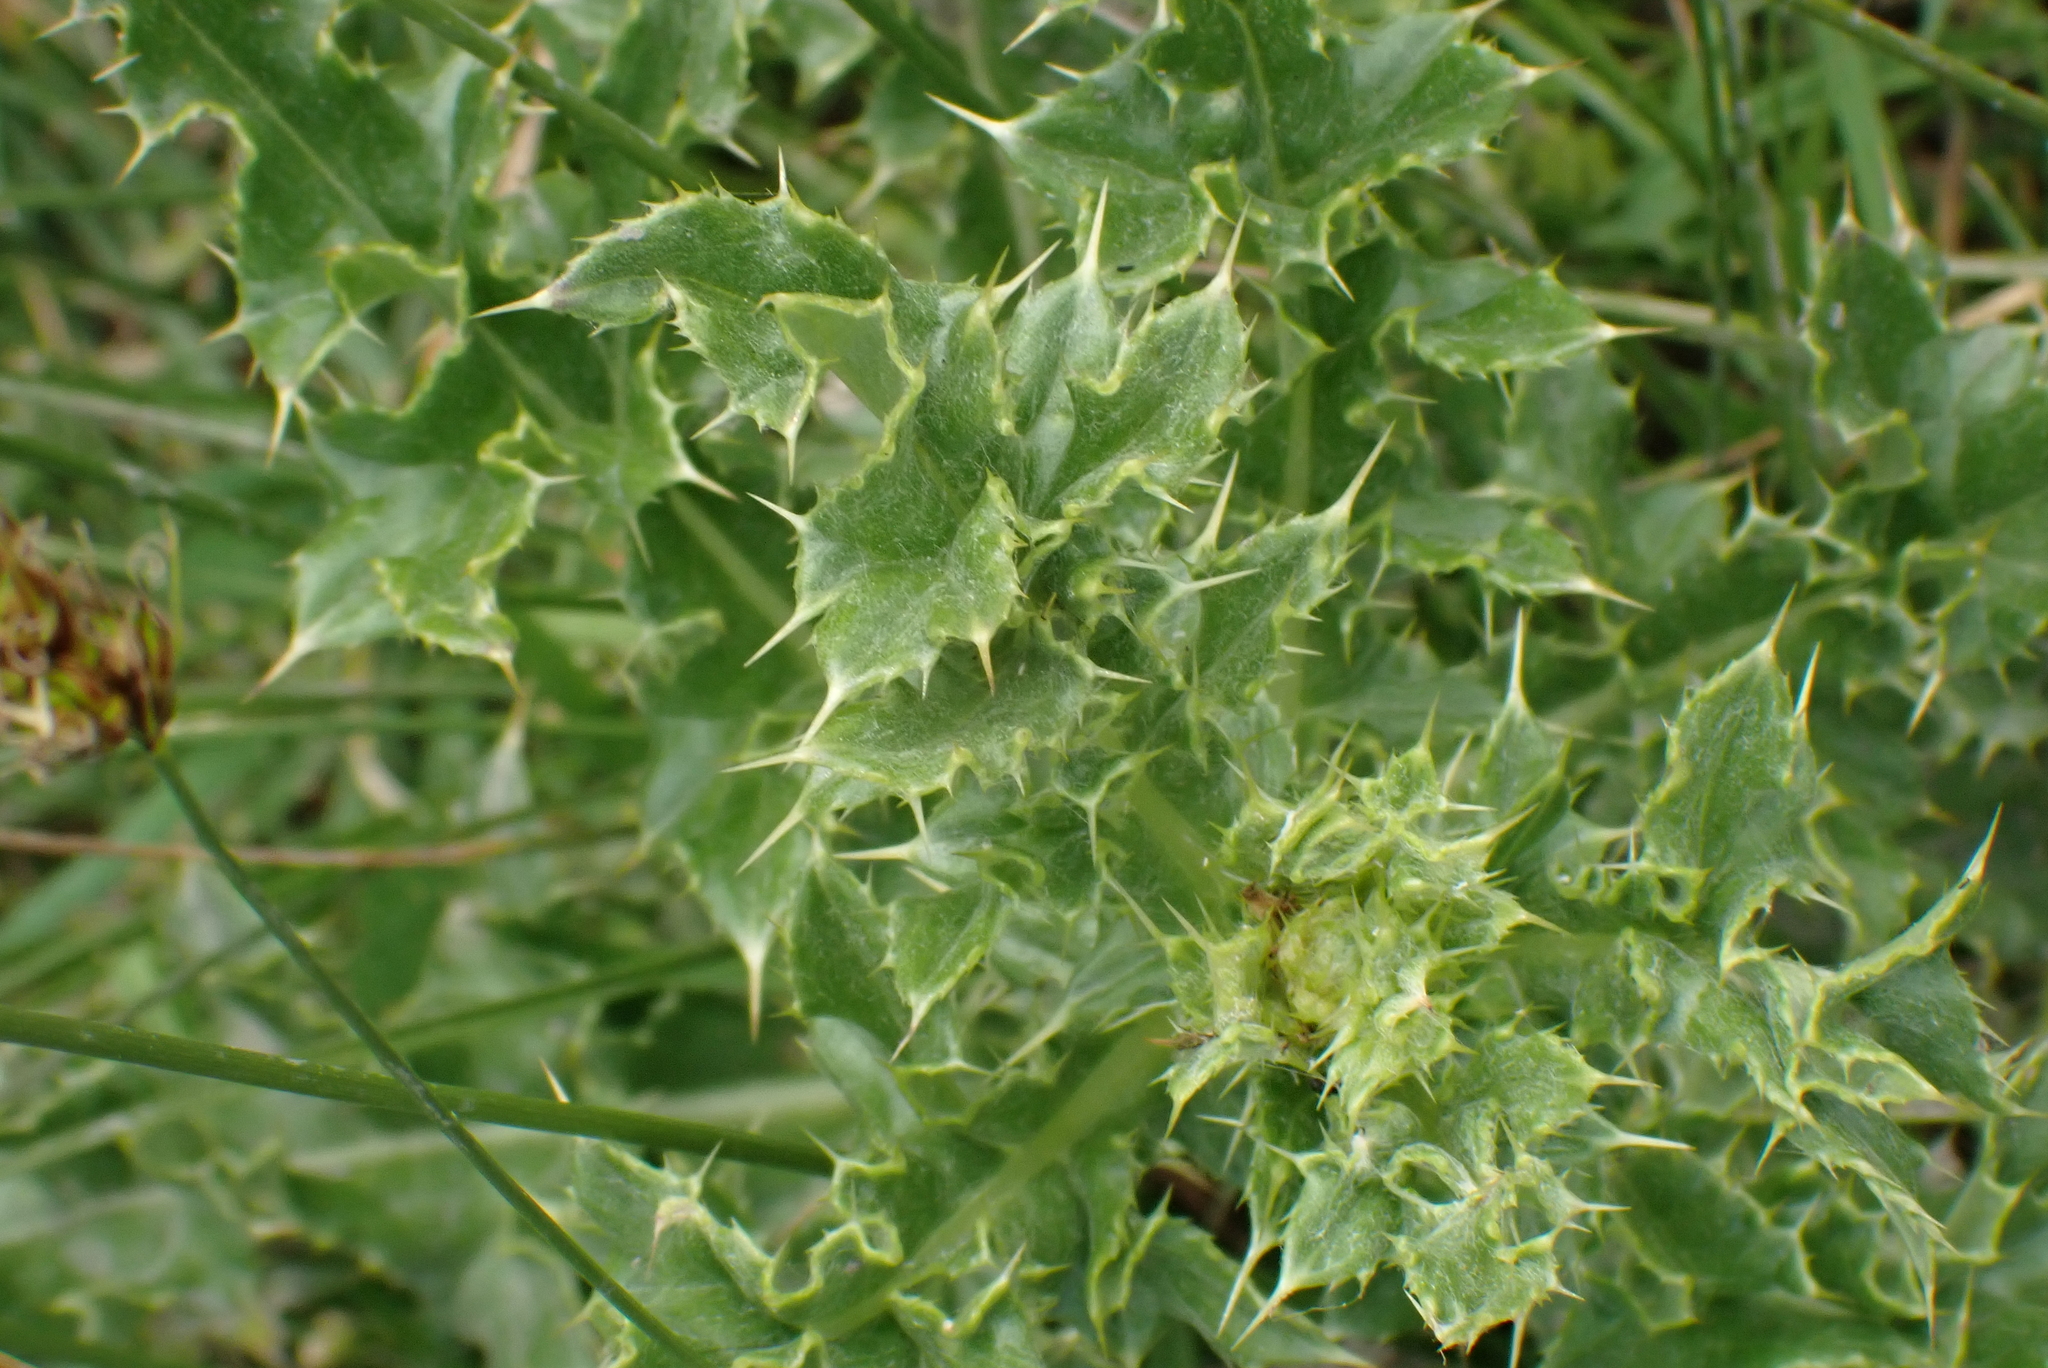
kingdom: Plantae
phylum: Tracheophyta
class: Magnoliopsida
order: Asterales
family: Asteraceae
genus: Cirsium
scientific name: Cirsium arvense
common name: Creeping thistle
